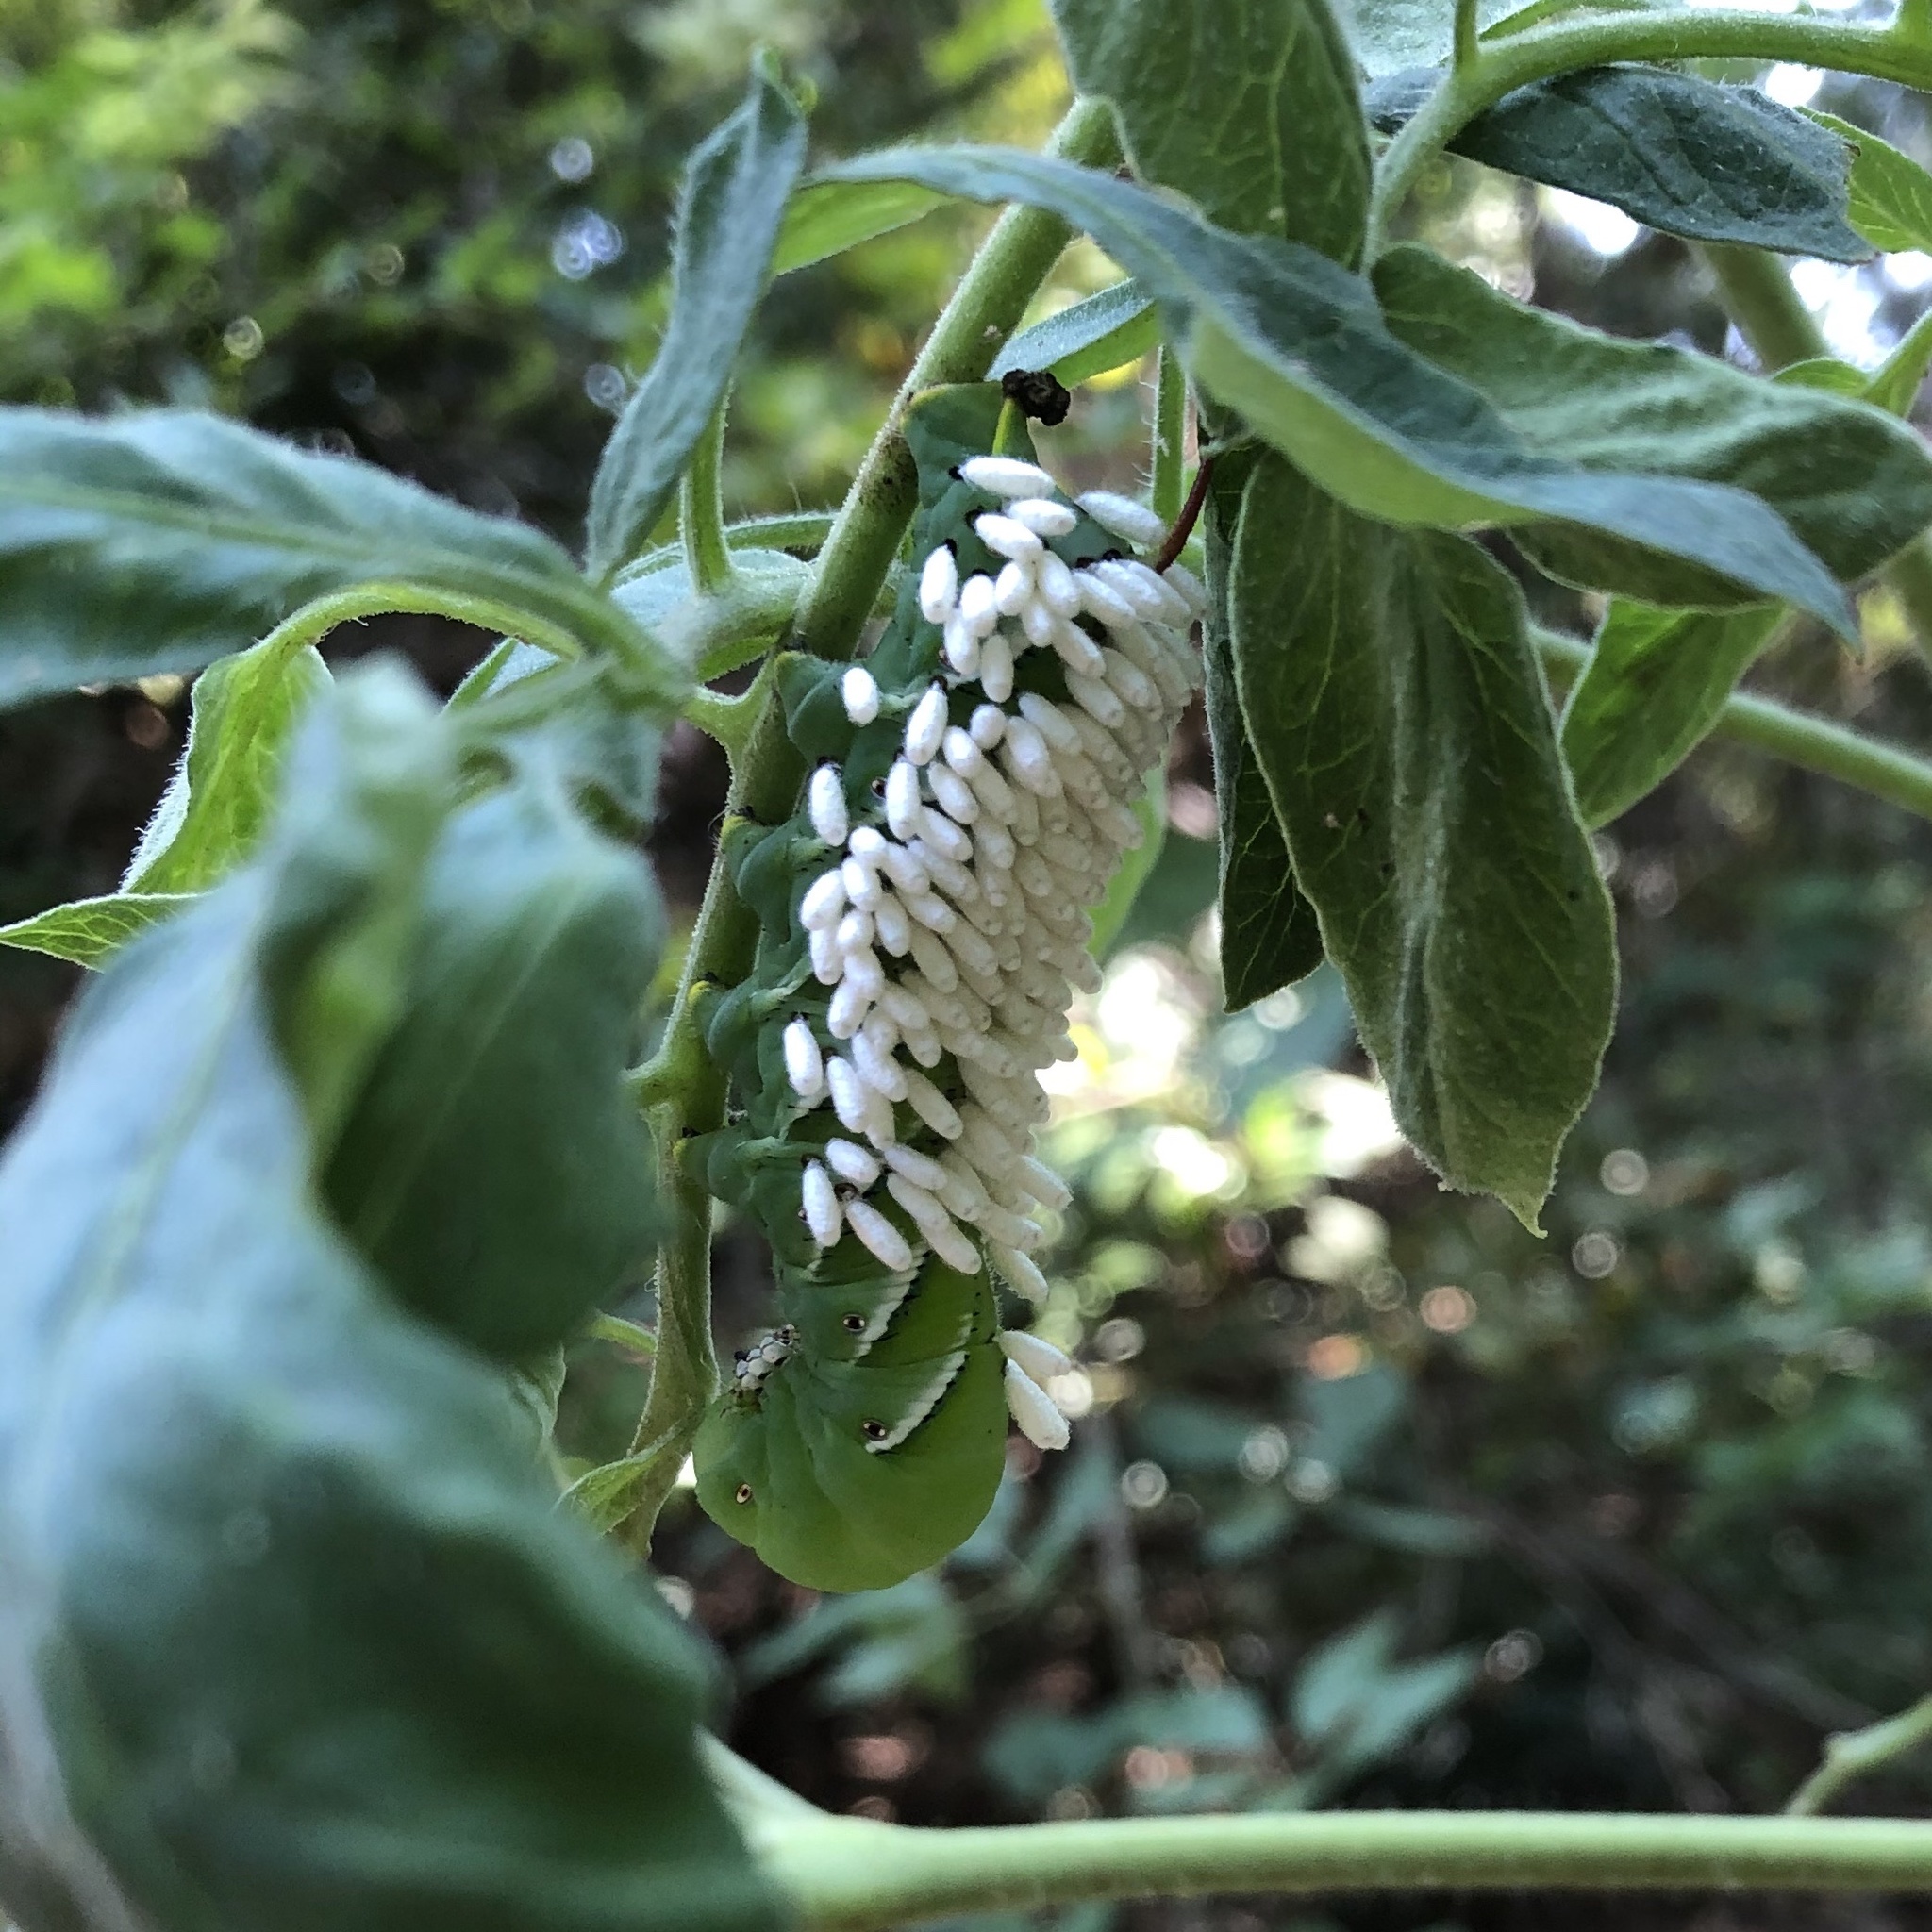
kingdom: Animalia
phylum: Arthropoda
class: Insecta
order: Lepidoptera
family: Sphingidae
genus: Manduca
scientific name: Manduca sexta
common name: Carolina sphinx
